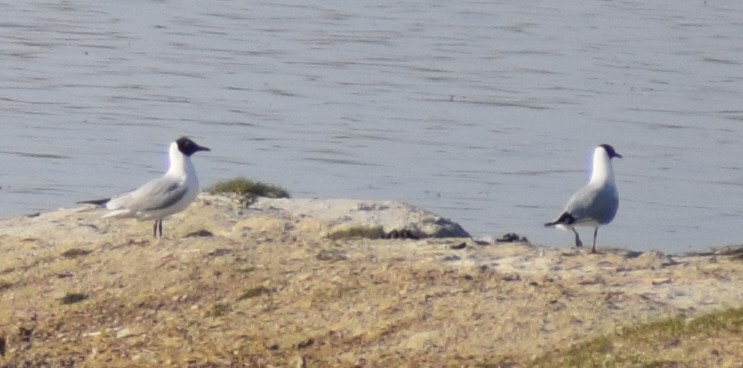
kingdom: Animalia
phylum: Chordata
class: Aves
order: Charadriiformes
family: Laridae
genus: Chroicocephalus
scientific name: Chroicocephalus ridibundus
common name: Black-headed gull
